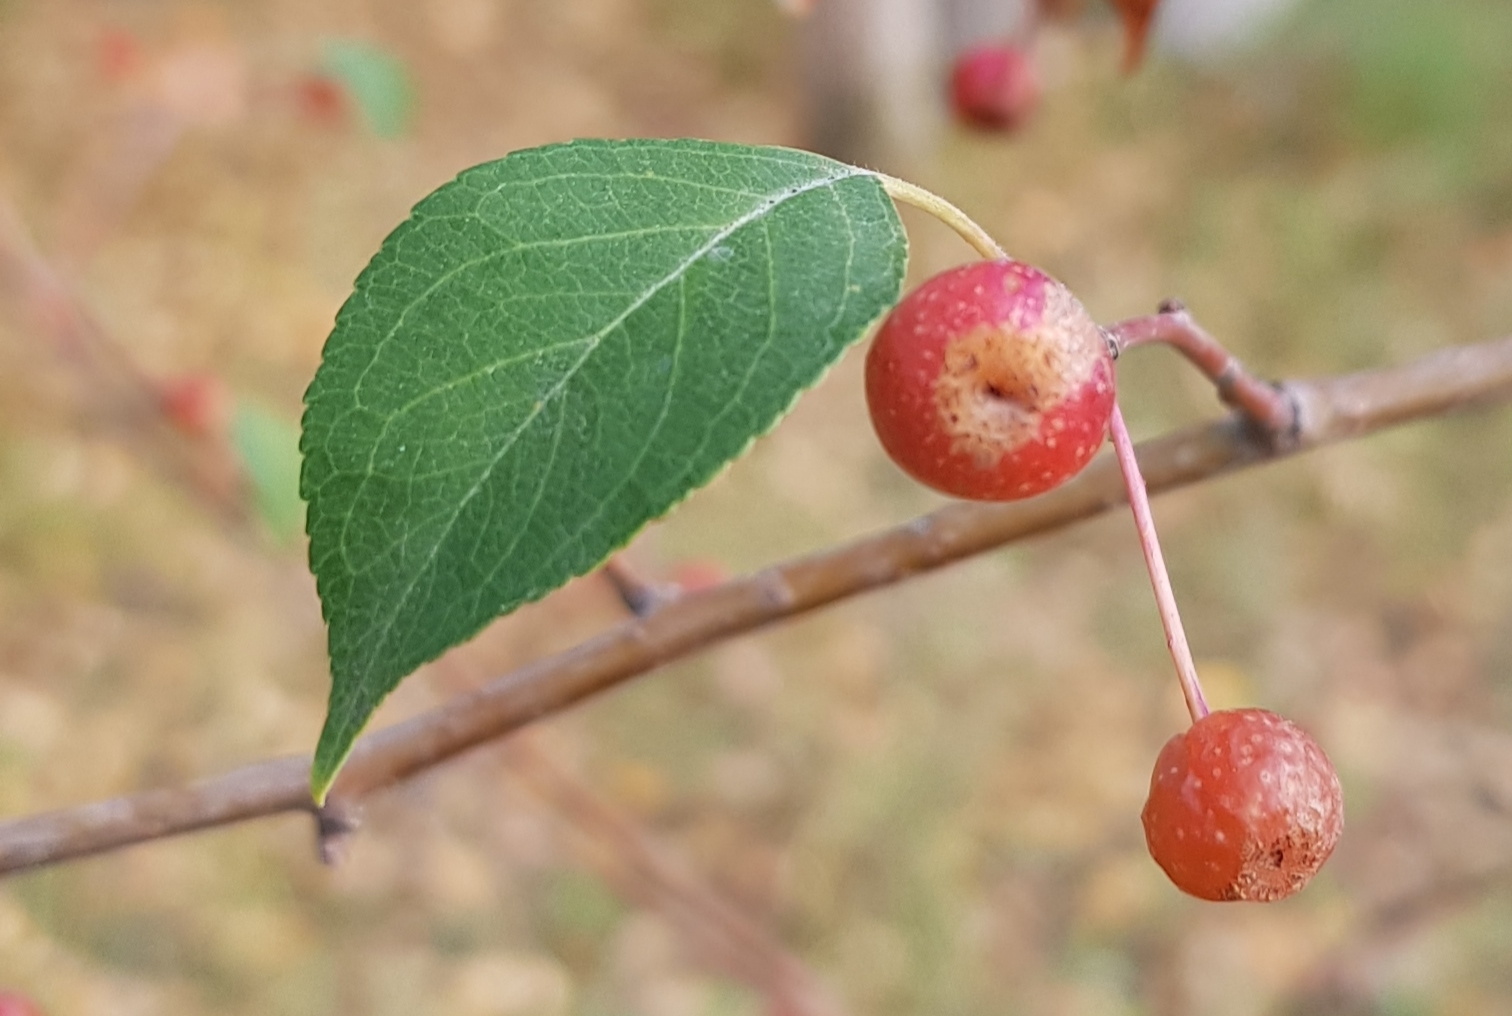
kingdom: Plantae
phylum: Tracheophyta
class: Magnoliopsida
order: Rosales
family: Rosaceae
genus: Malus
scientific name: Malus baccata
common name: Siberian crab
